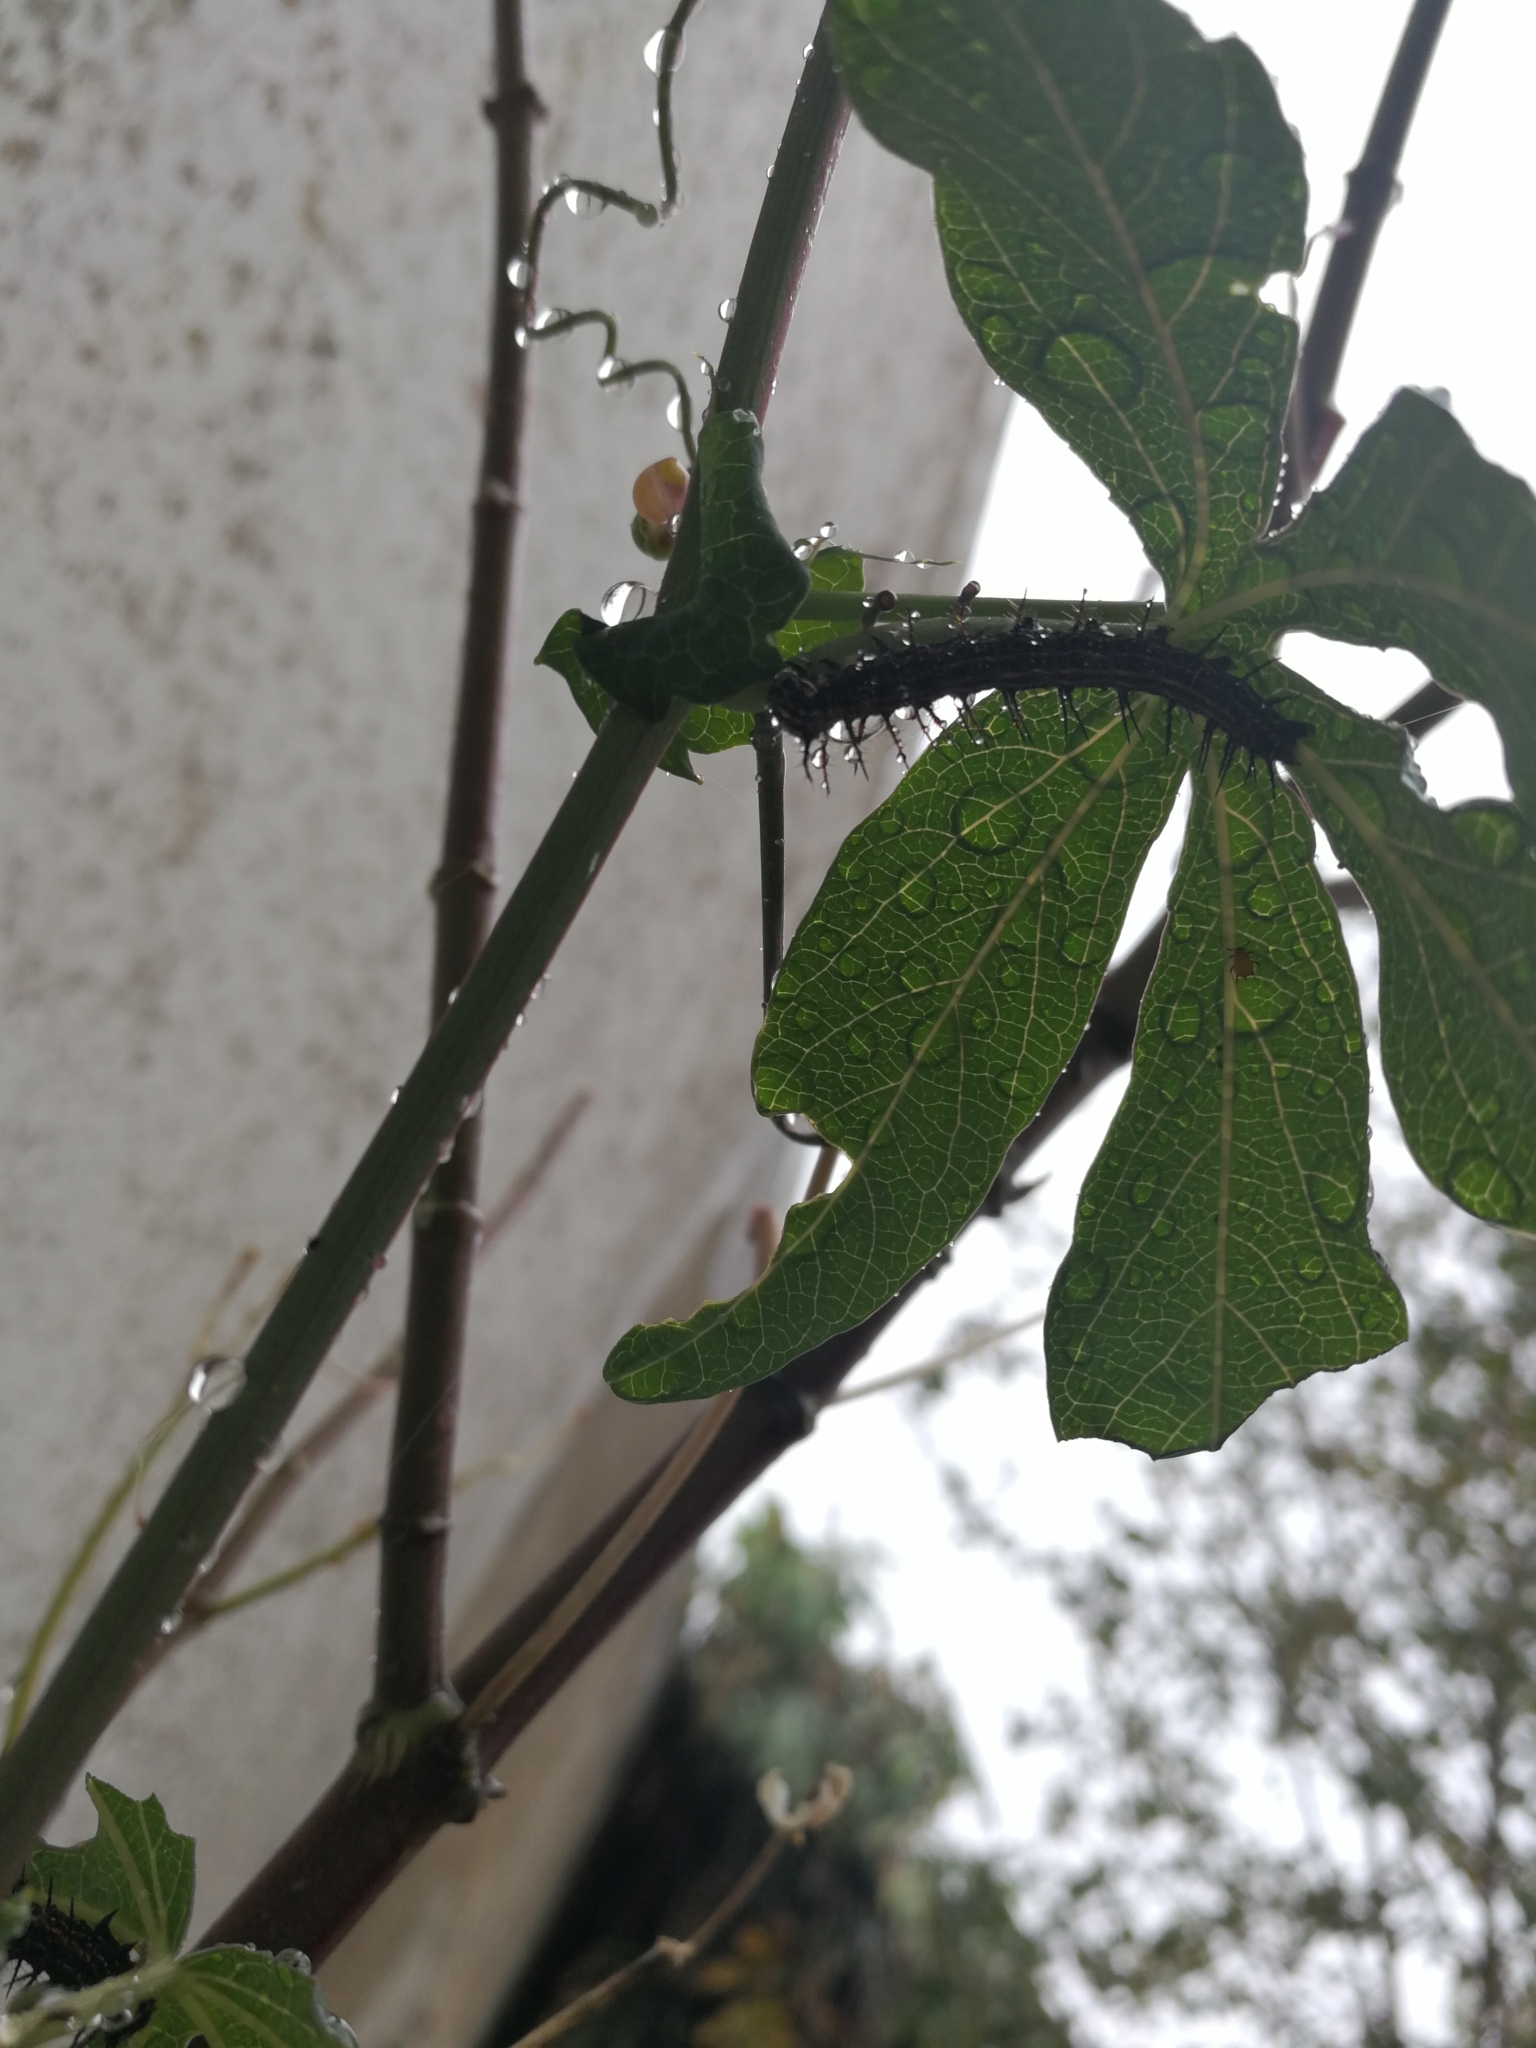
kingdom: Animalia
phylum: Arthropoda
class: Insecta
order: Lepidoptera
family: Nymphalidae
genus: Dione
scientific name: Dione vanillae
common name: Gulf fritillary
